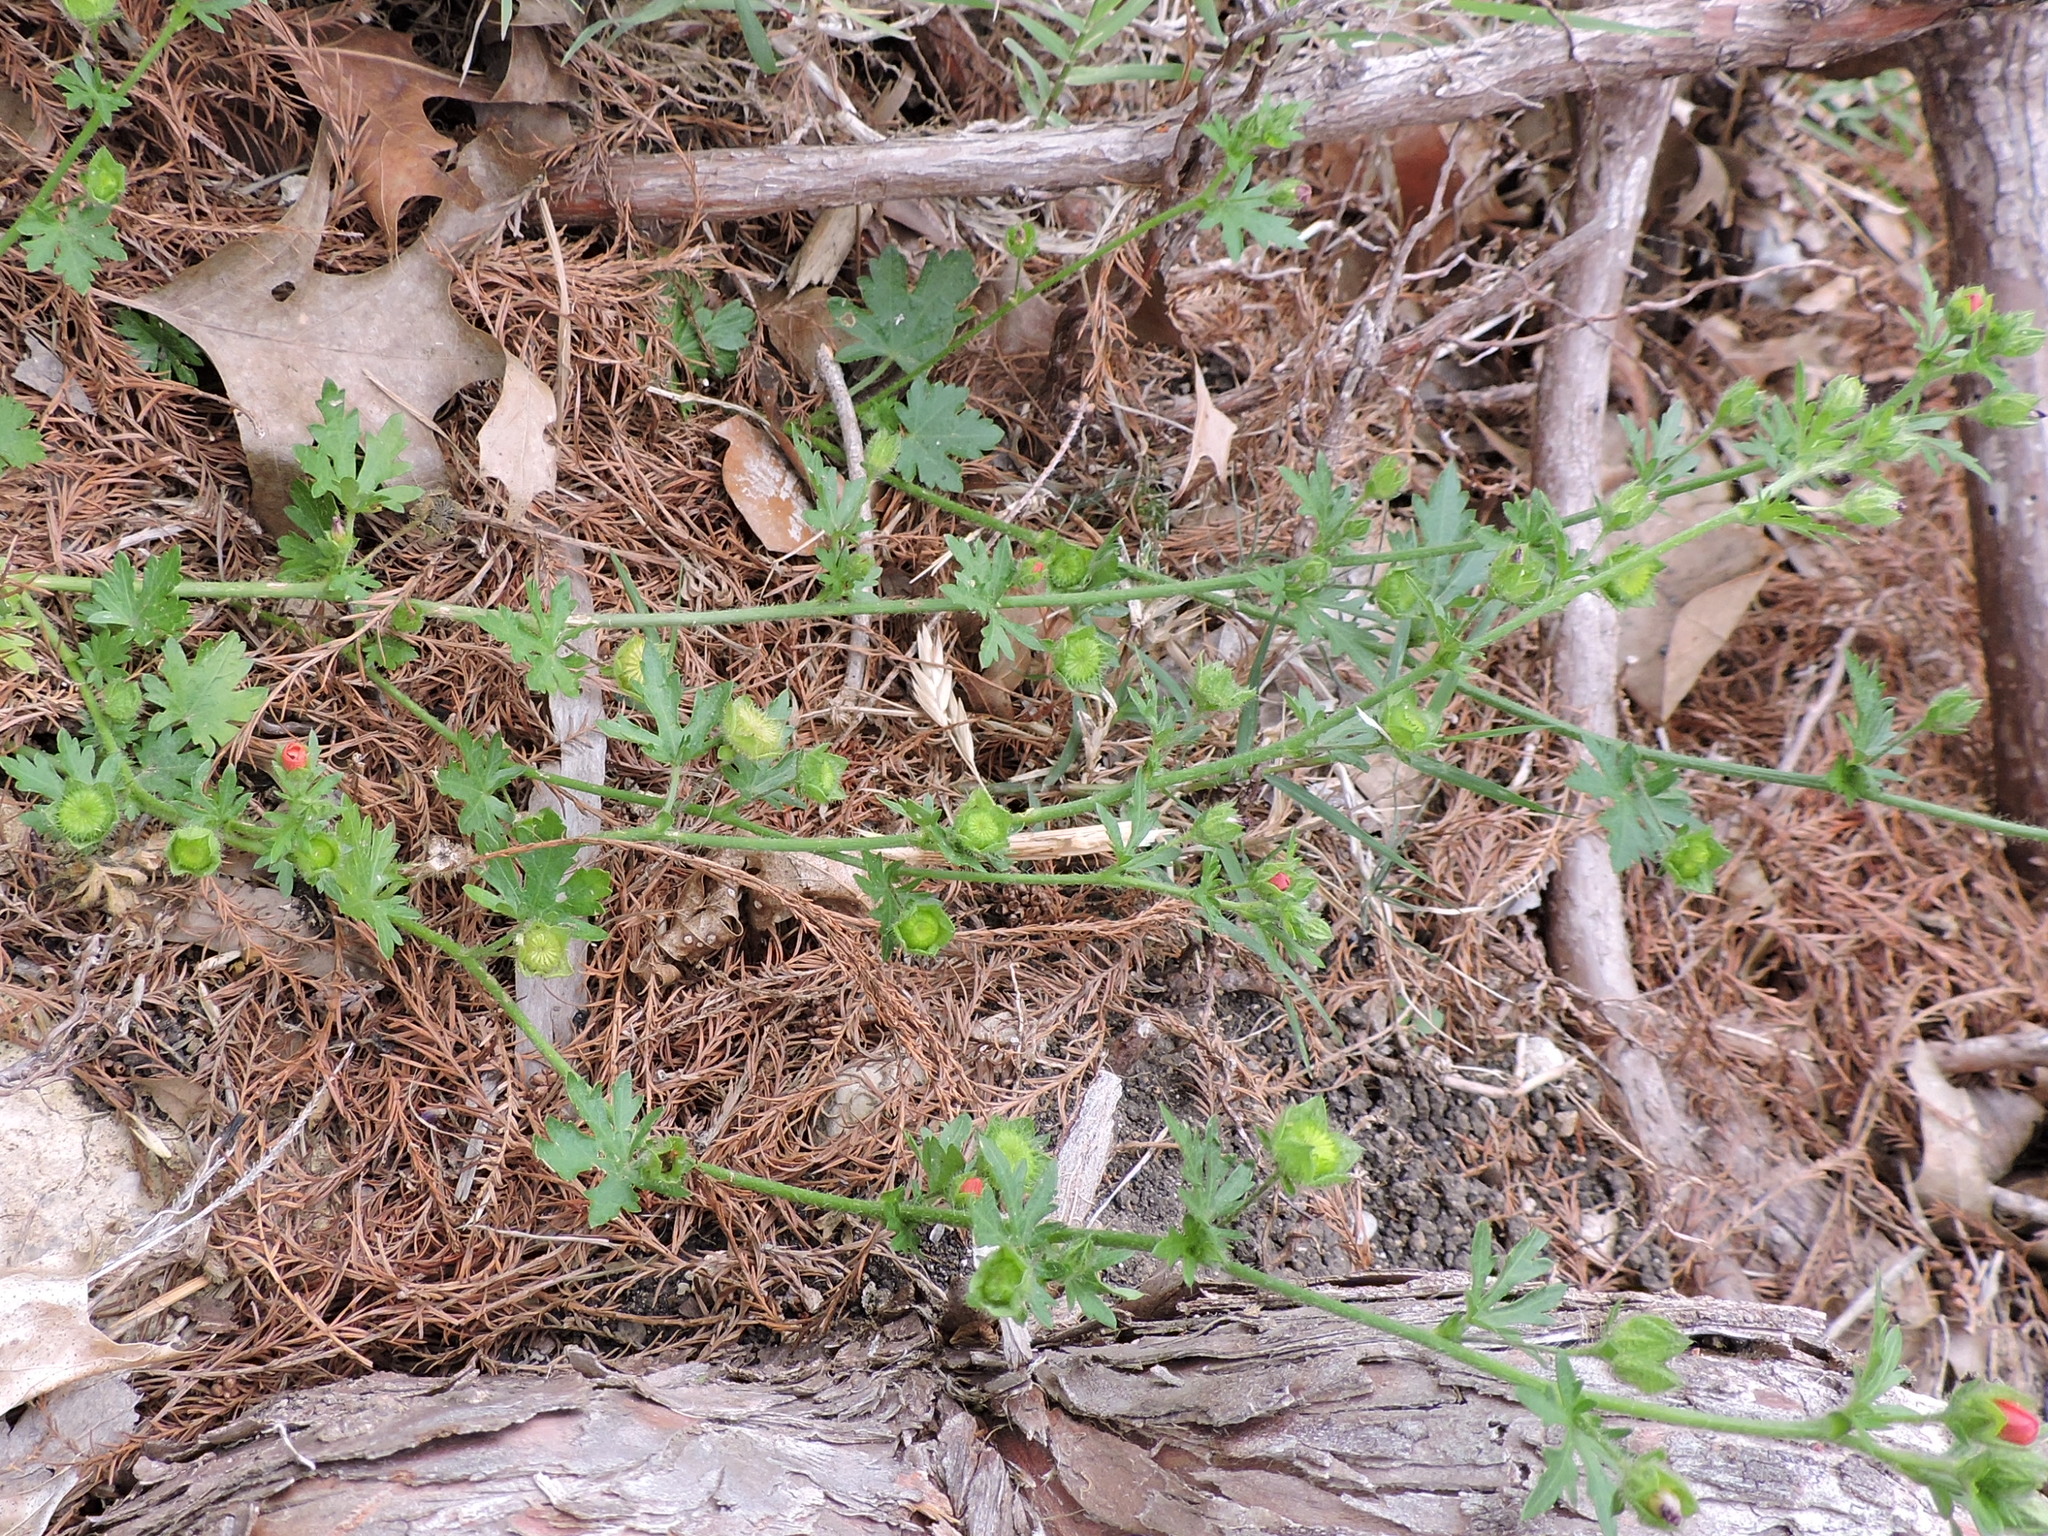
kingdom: Plantae
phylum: Tracheophyta
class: Magnoliopsida
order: Malvales
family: Malvaceae
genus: Modiola
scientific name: Modiola caroliniana
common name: Carolina bristlemallow
